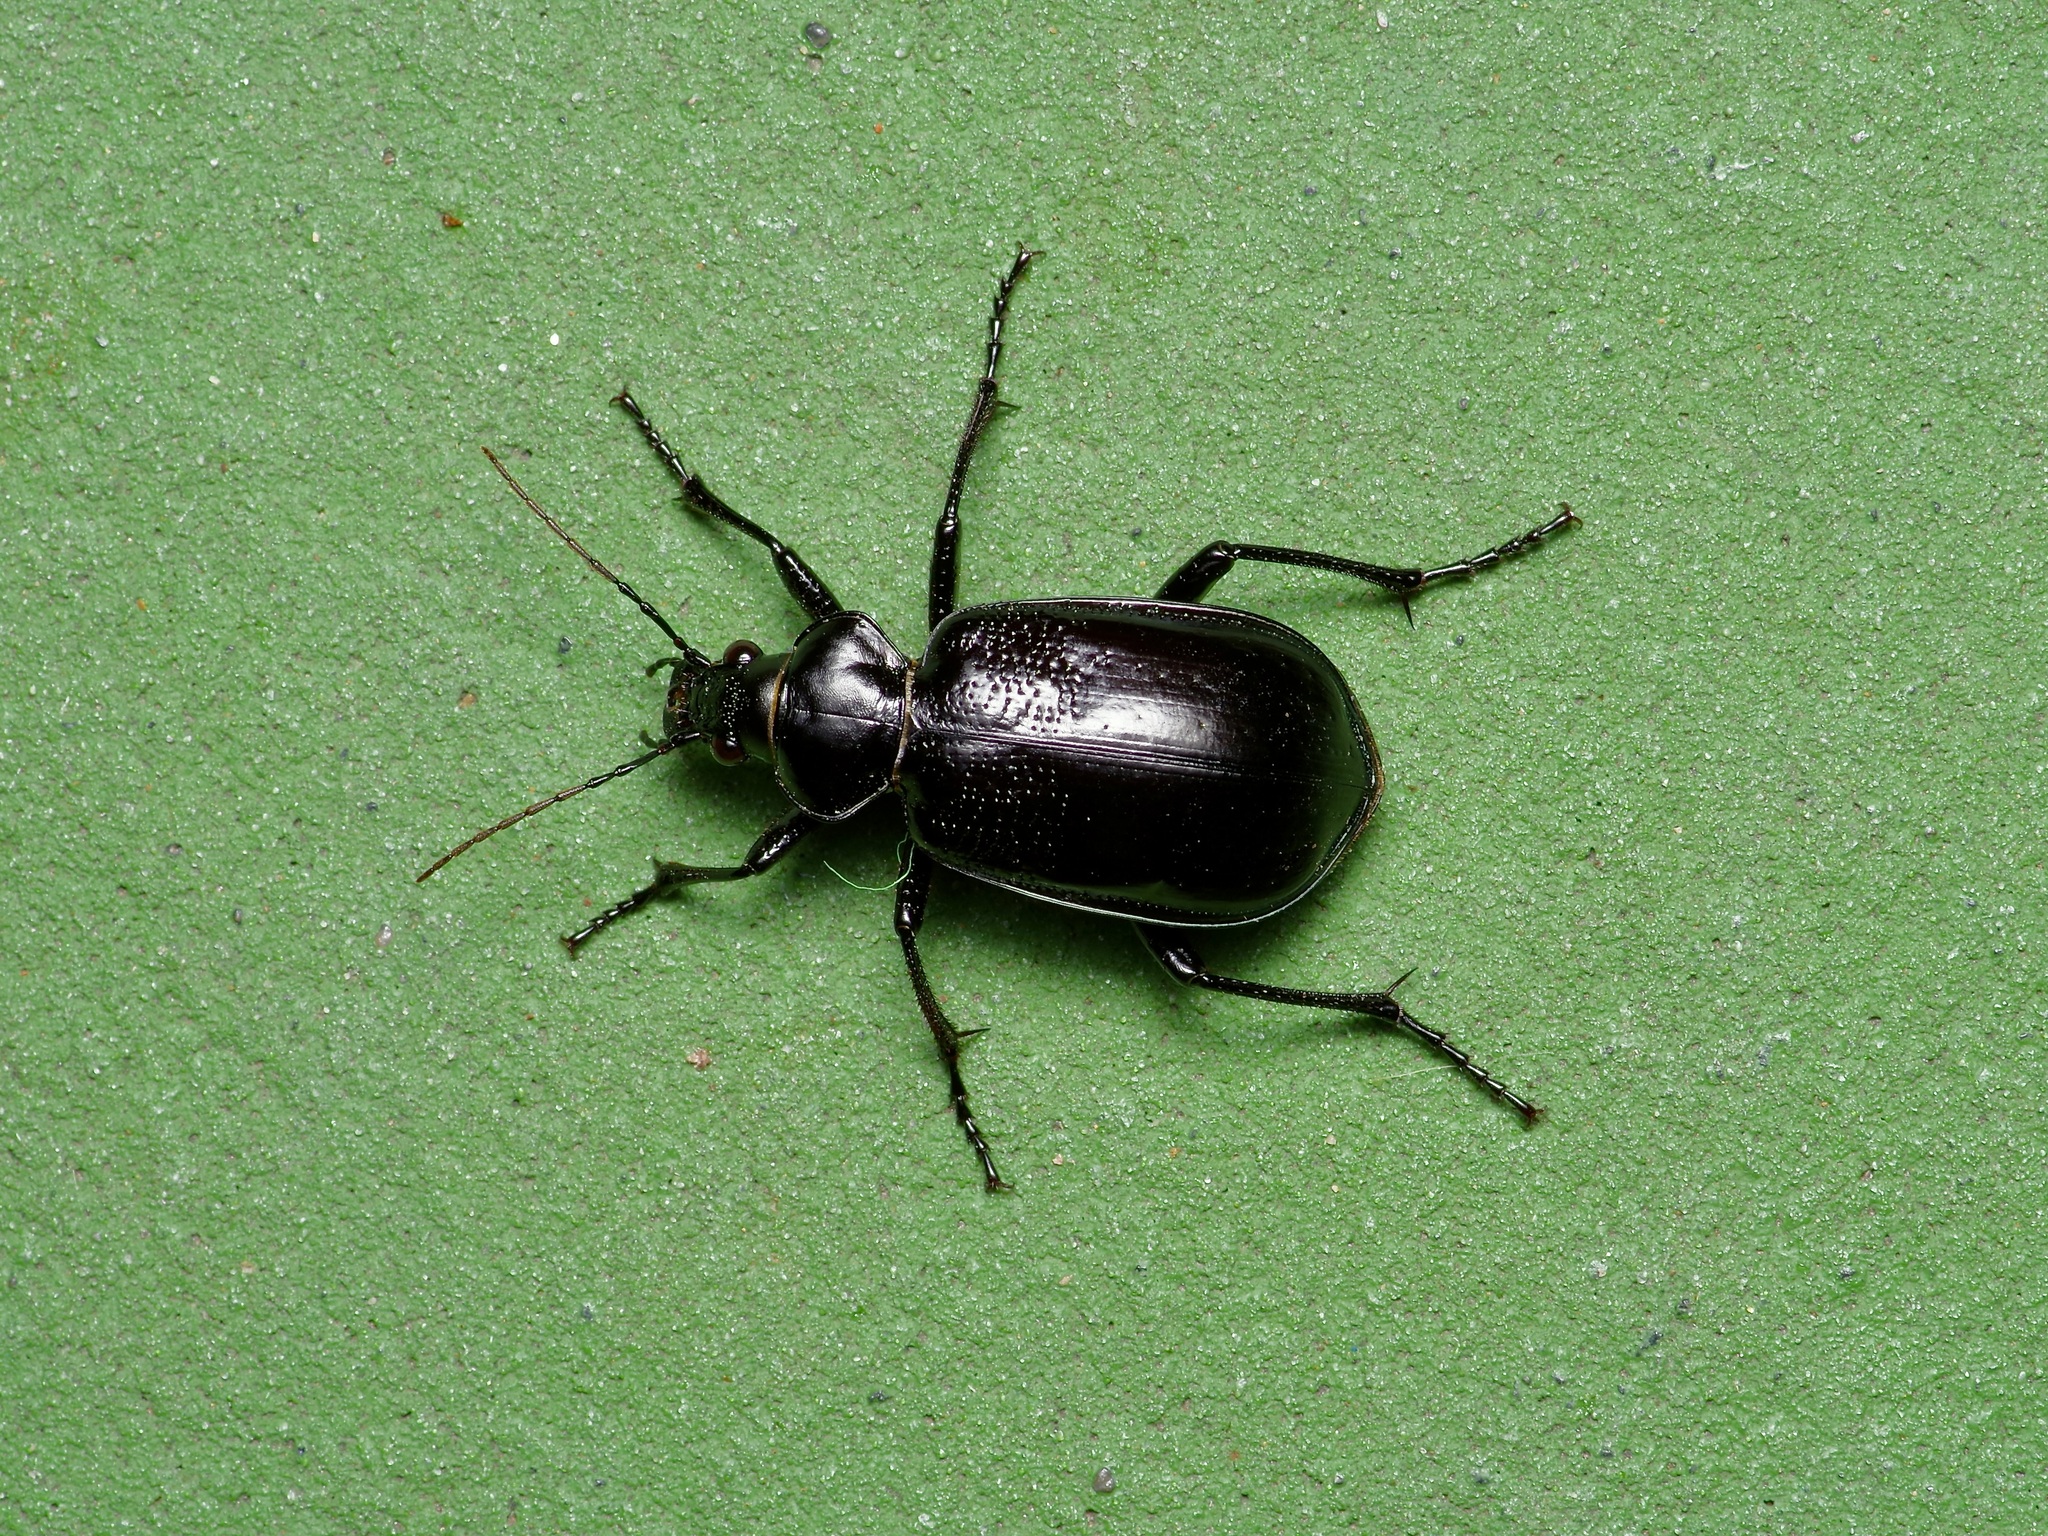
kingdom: Animalia
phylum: Arthropoda
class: Insecta
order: Coleoptera
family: Carabidae
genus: Calosoma
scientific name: Calosoma marginale
